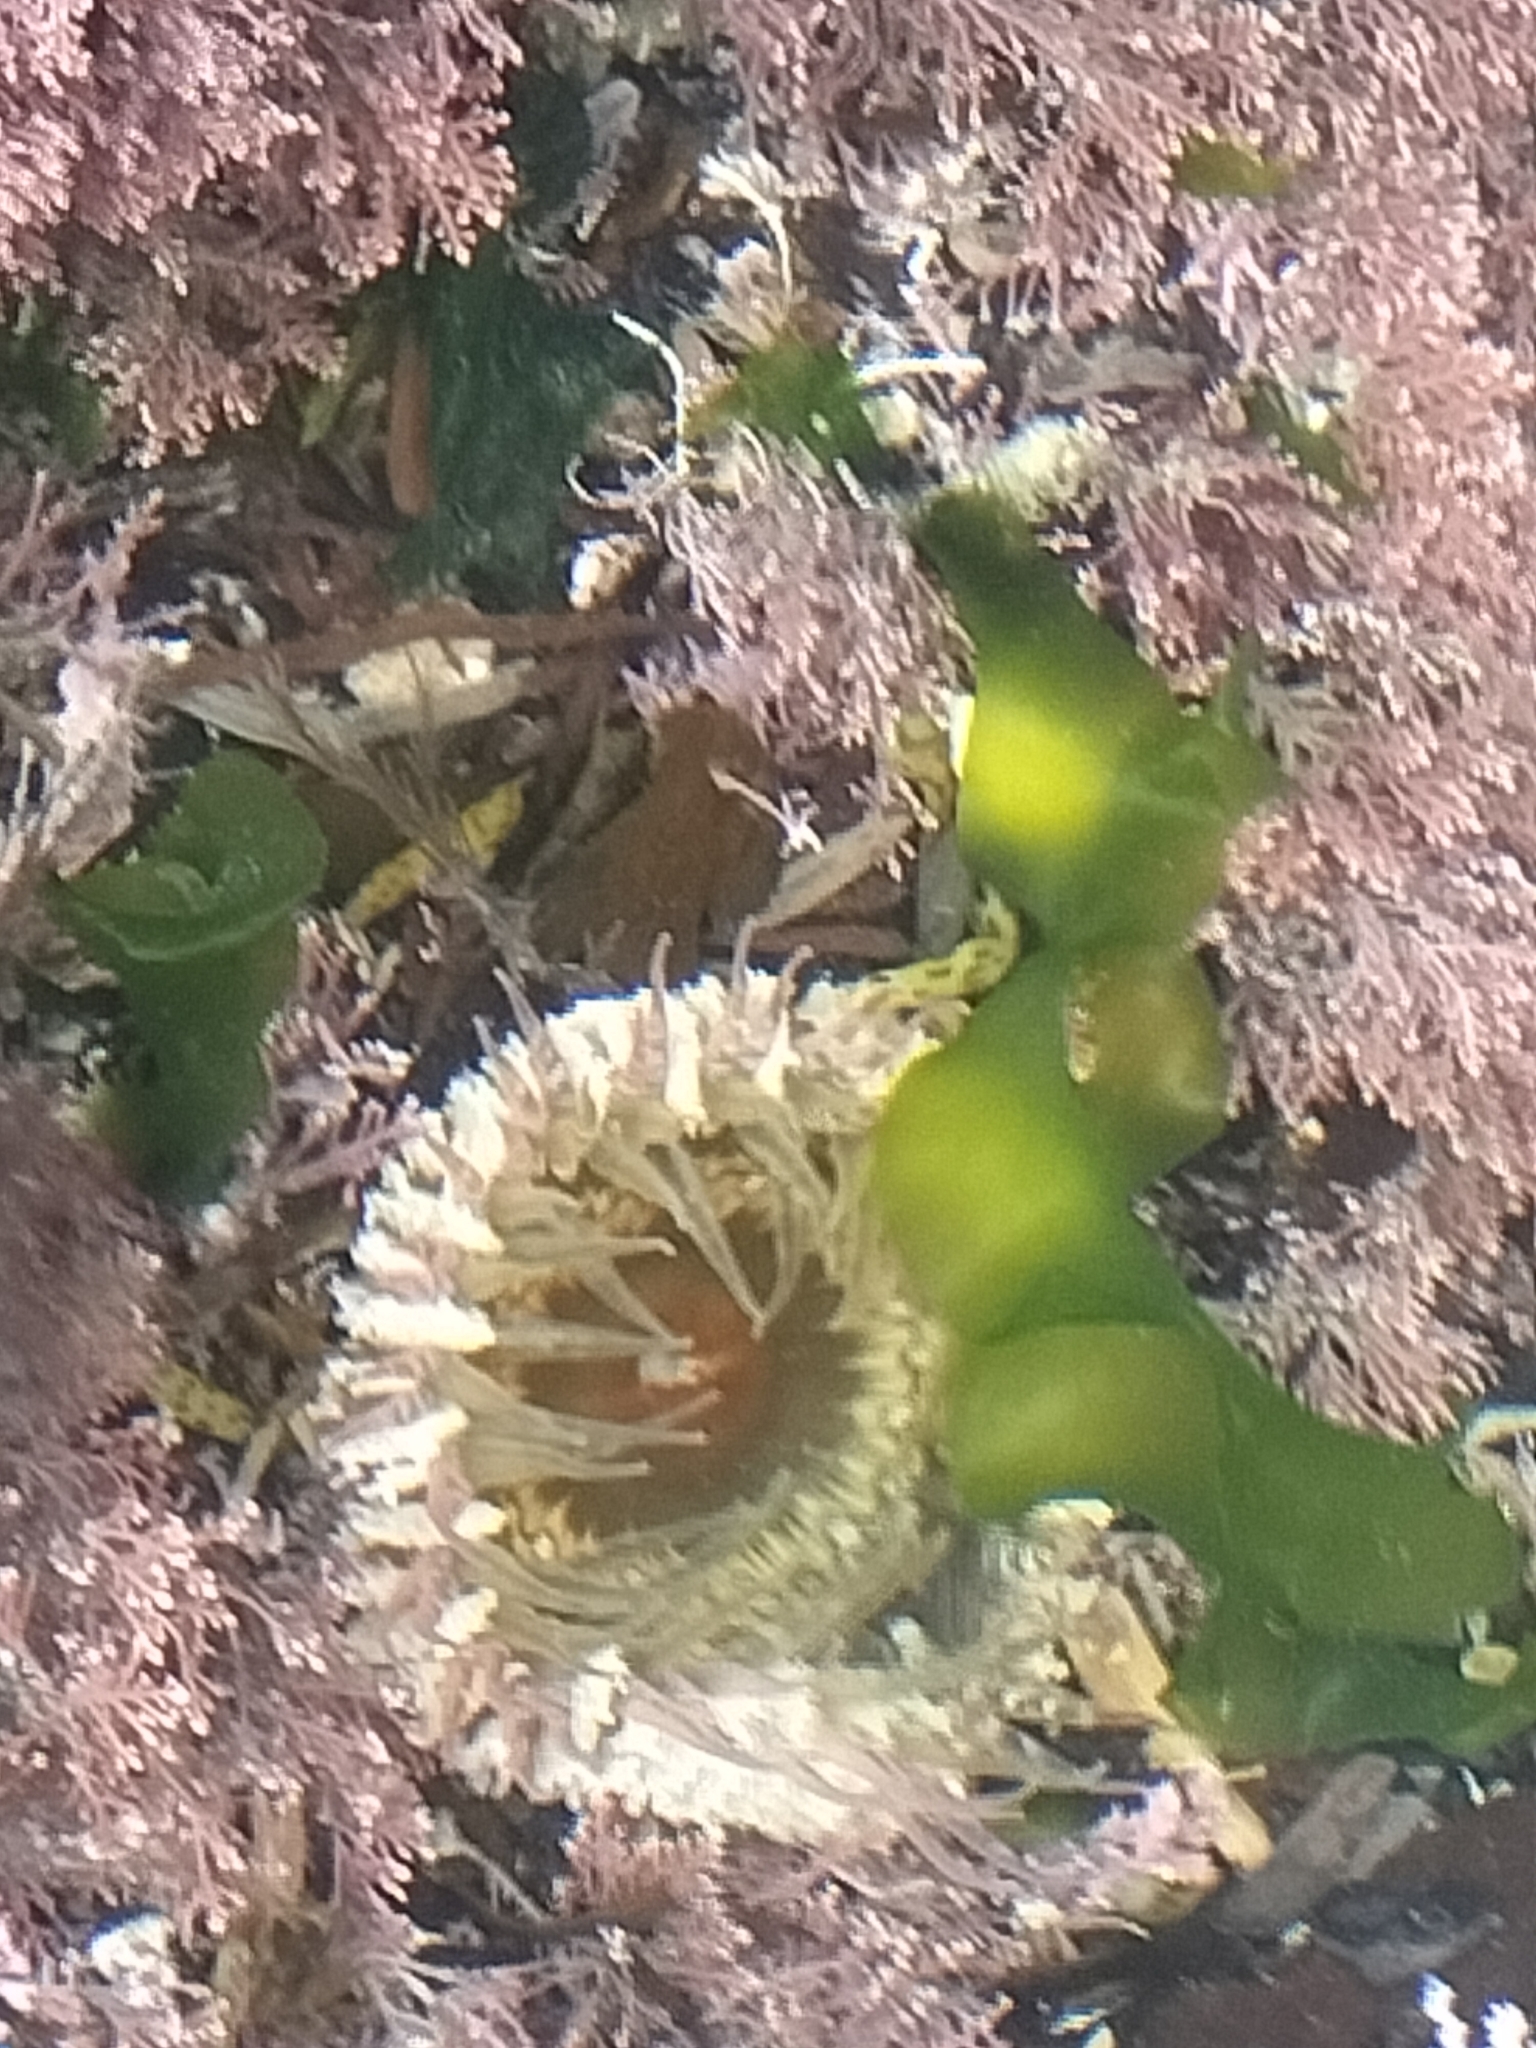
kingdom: Animalia
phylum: Cnidaria
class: Anthozoa
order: Actiniaria
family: Actiniidae
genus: Oulactis
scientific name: Oulactis muscosa
